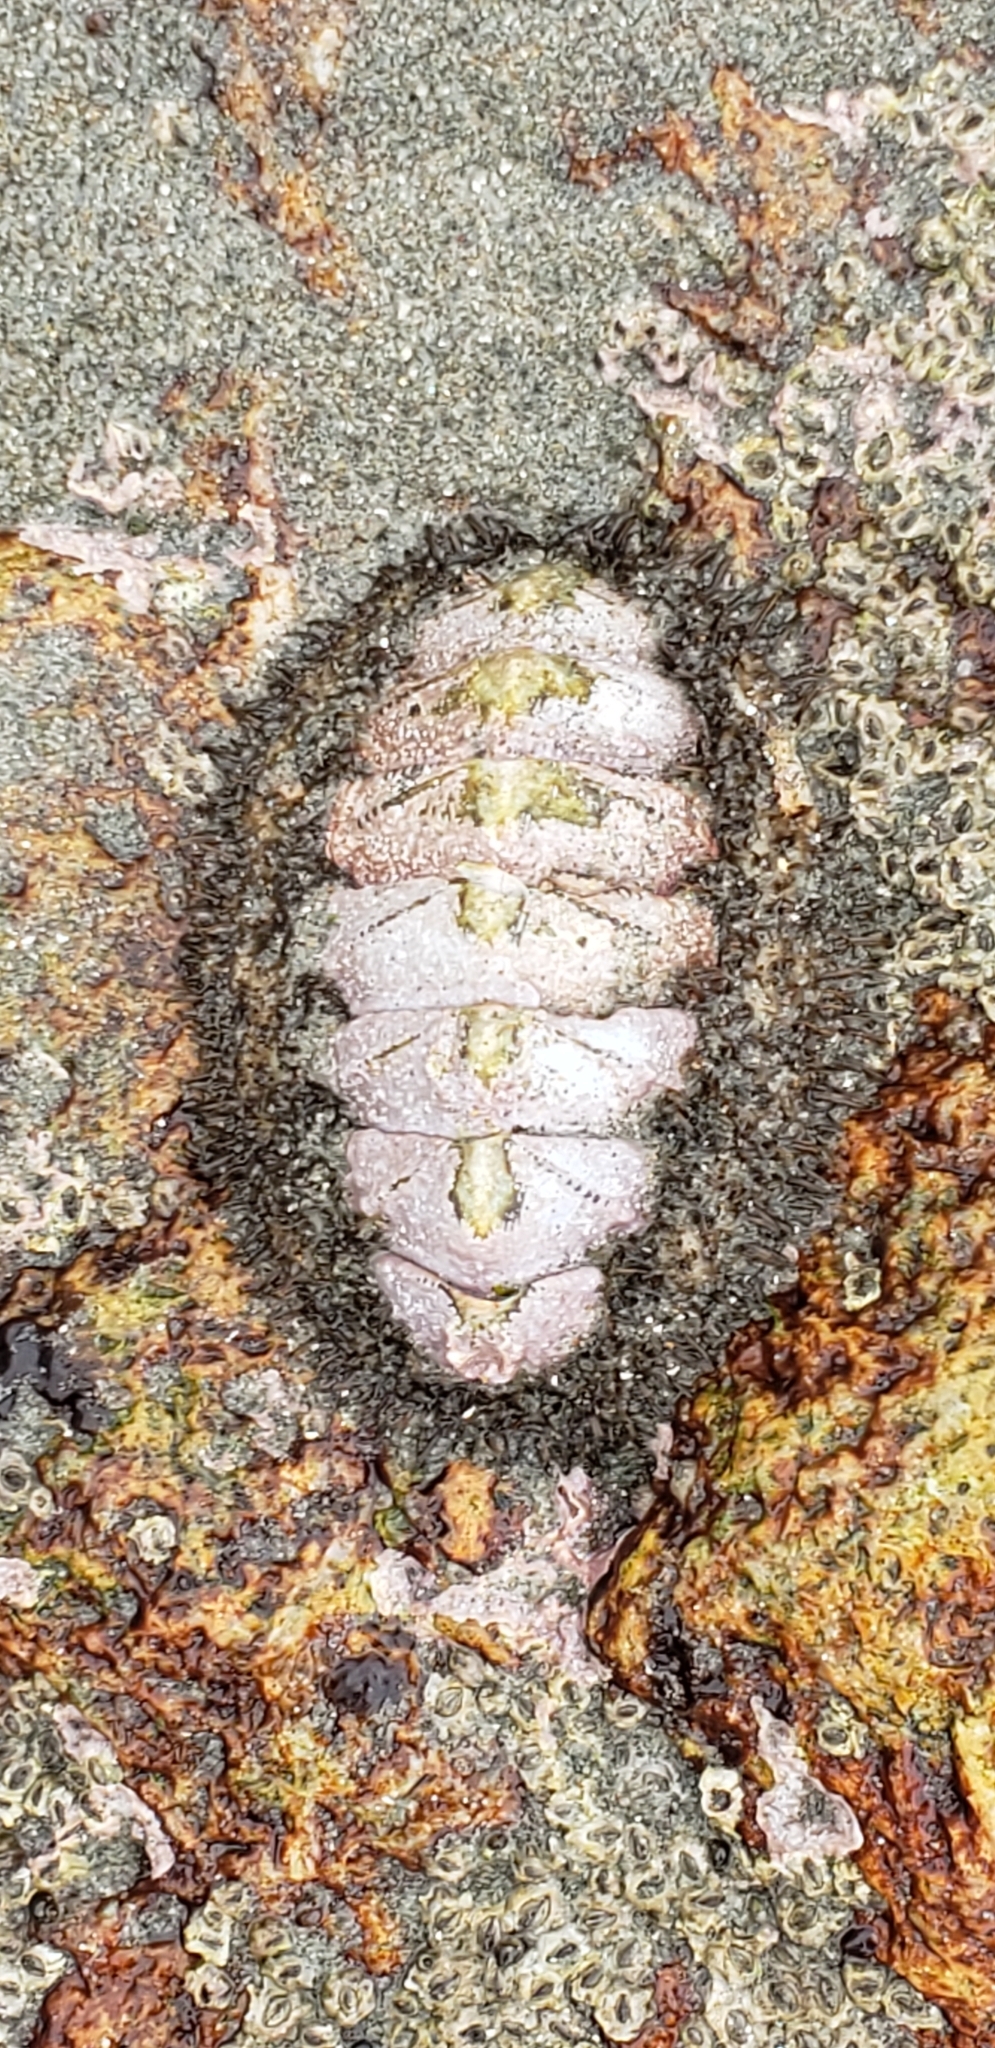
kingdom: Animalia
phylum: Mollusca
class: Polyplacophora
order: Chitonida
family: Mopaliidae
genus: Mopalia
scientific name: Mopalia muscosa
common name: Mossy chiton
